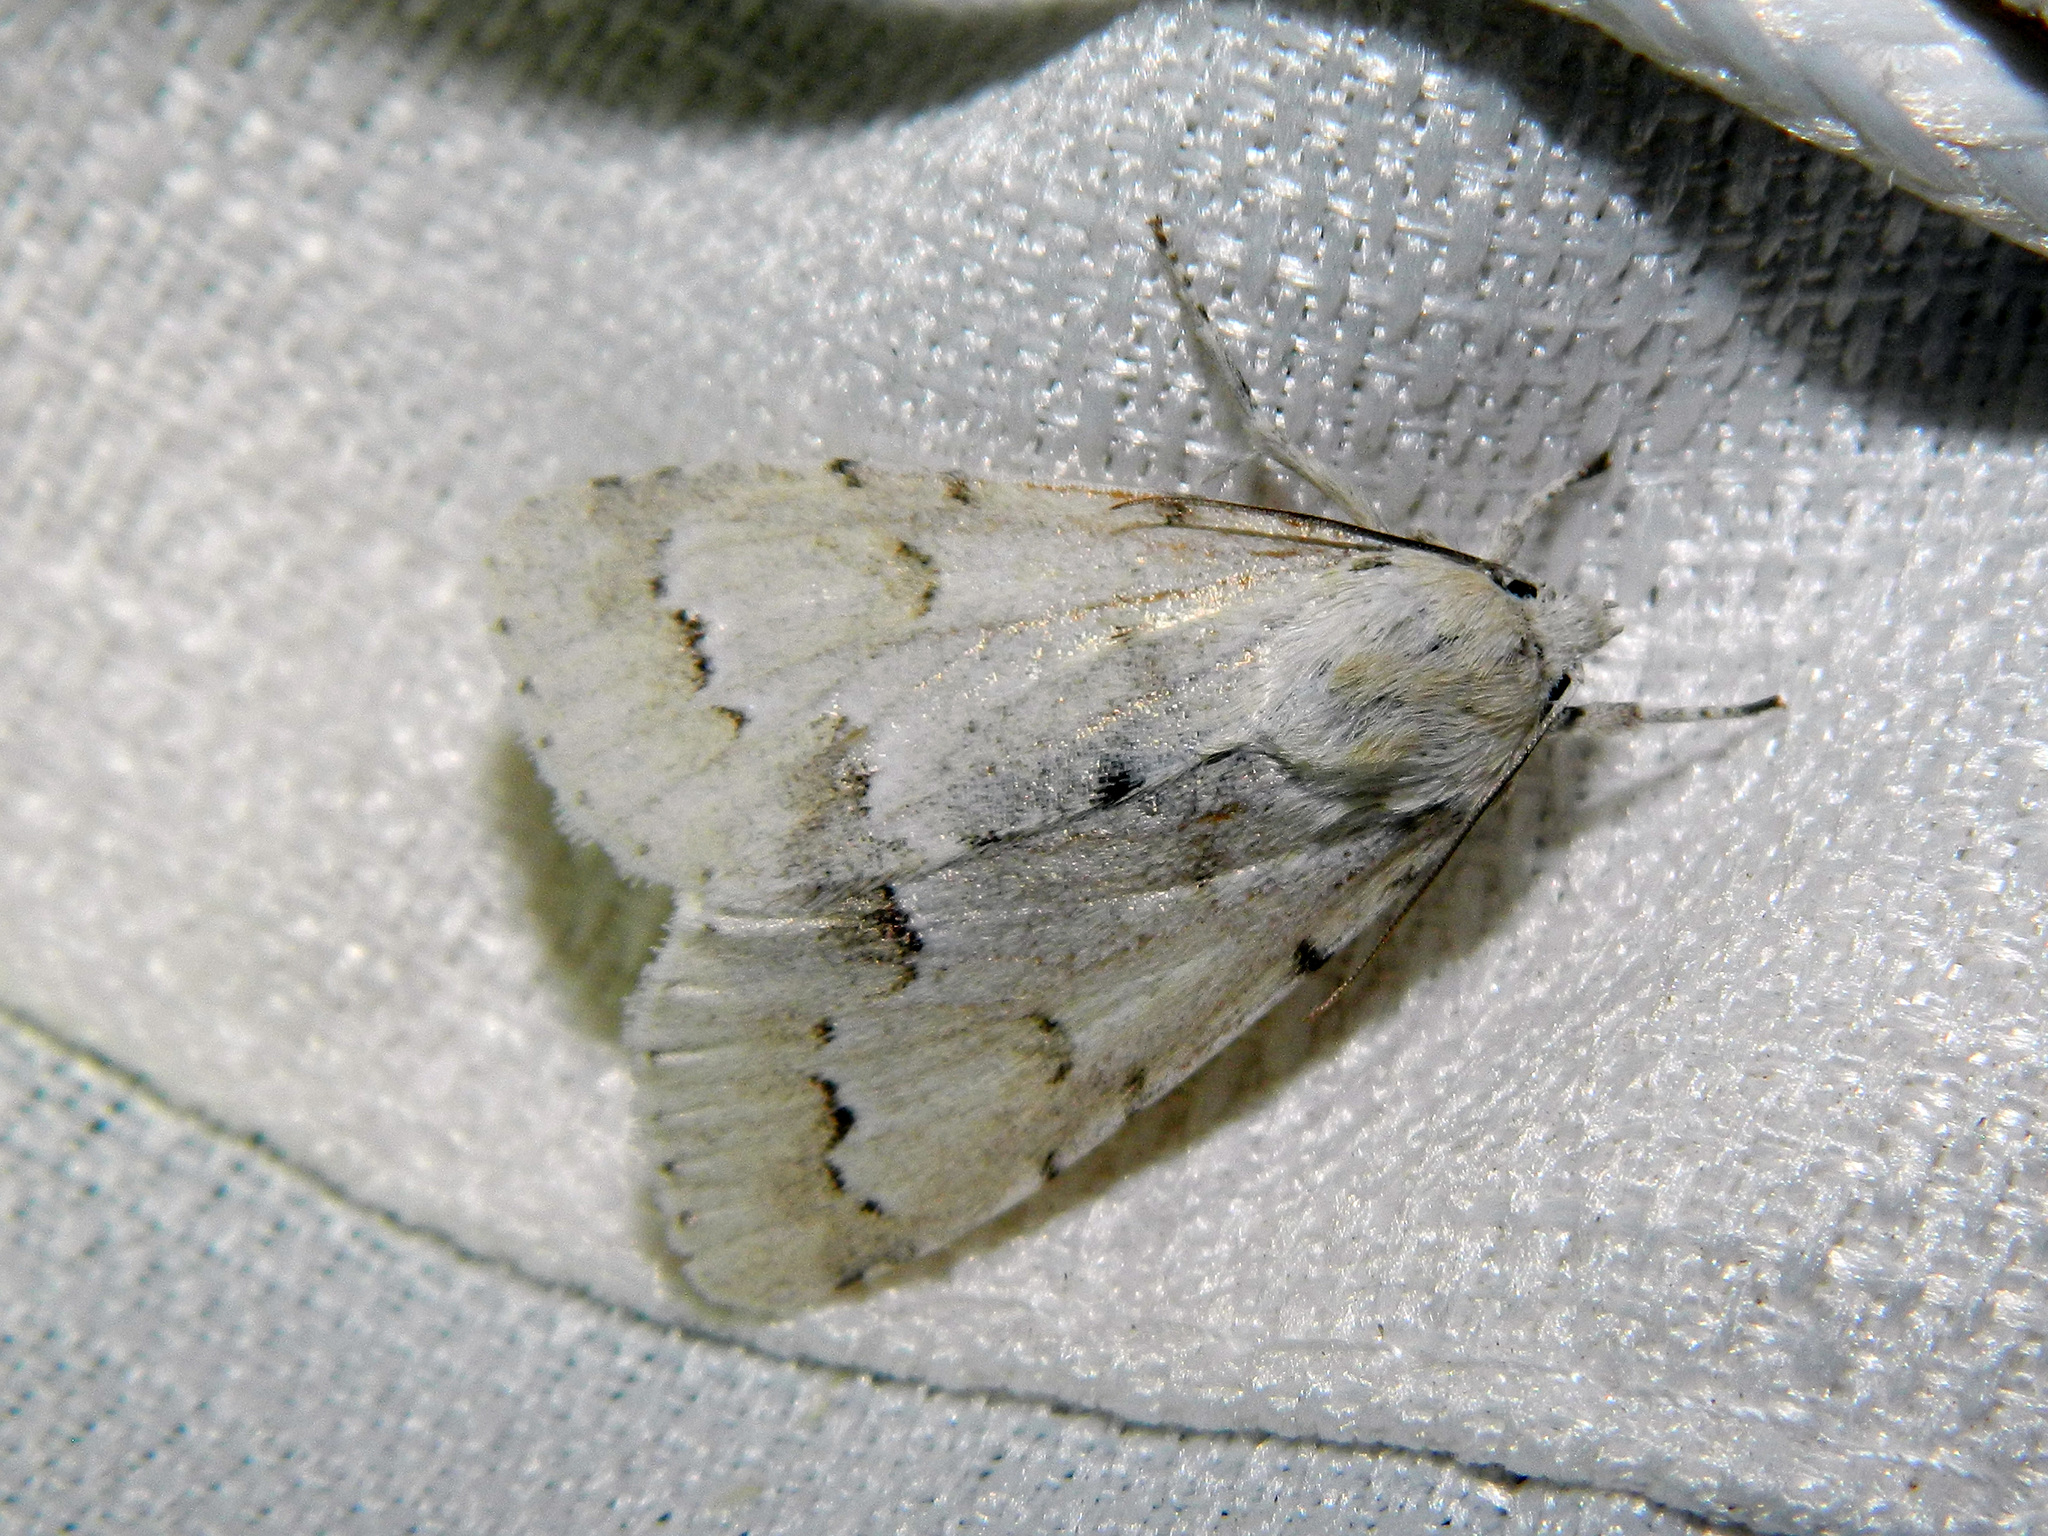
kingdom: Animalia
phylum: Arthropoda
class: Insecta
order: Lepidoptera
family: Noctuidae
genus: Acronicta
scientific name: Acronicta innotata
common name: Unmarked dagger
